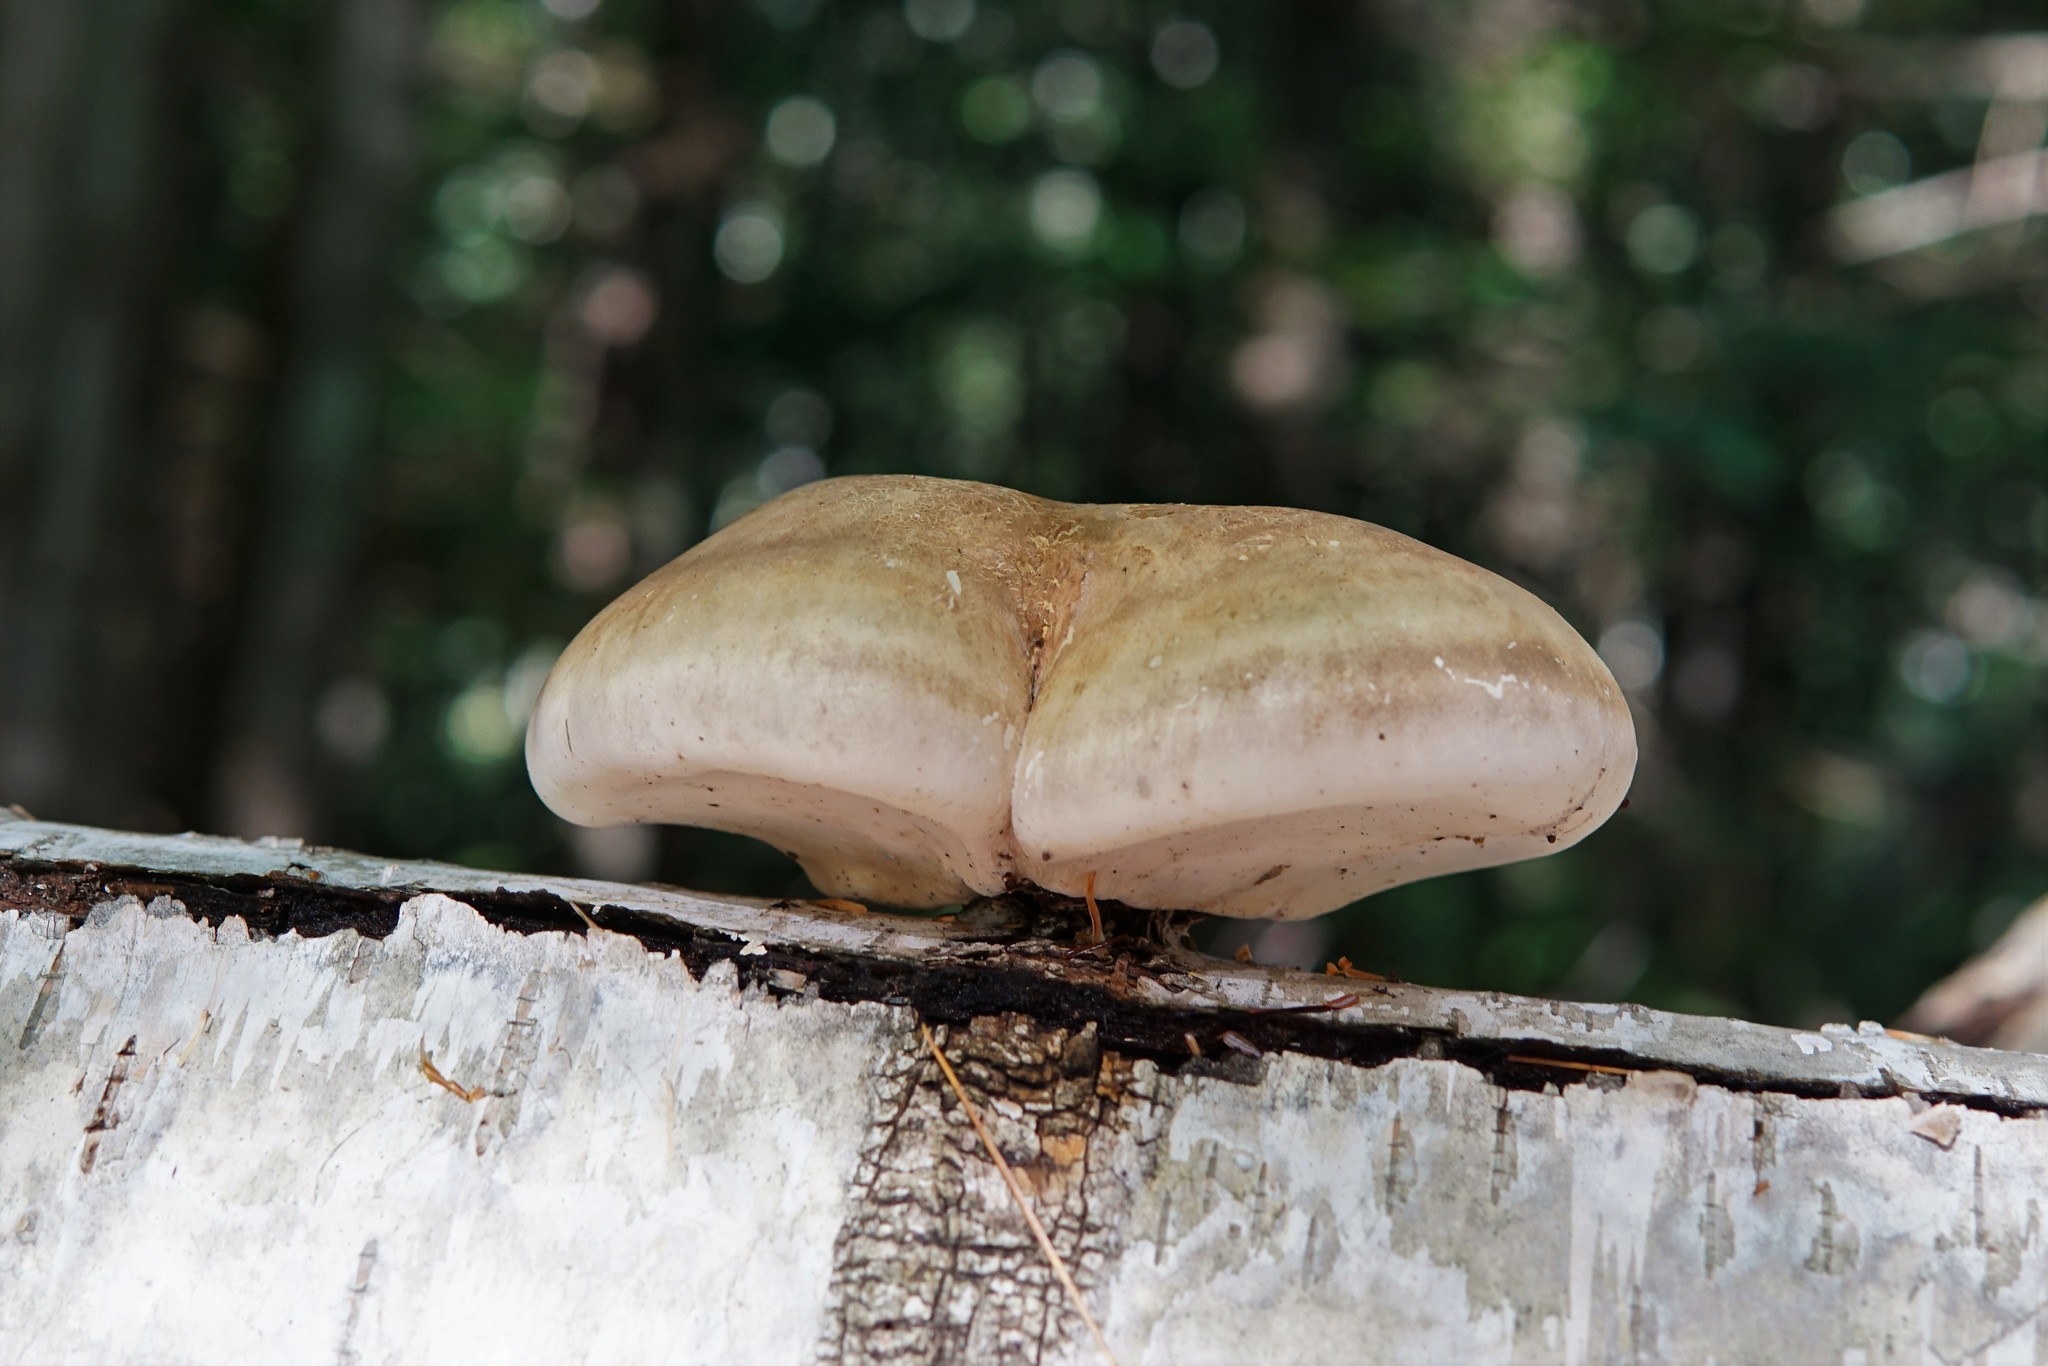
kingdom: Fungi
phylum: Basidiomycota
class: Agaricomycetes
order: Polyporales
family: Fomitopsidaceae
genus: Fomitopsis
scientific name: Fomitopsis betulina
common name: Birch polypore
